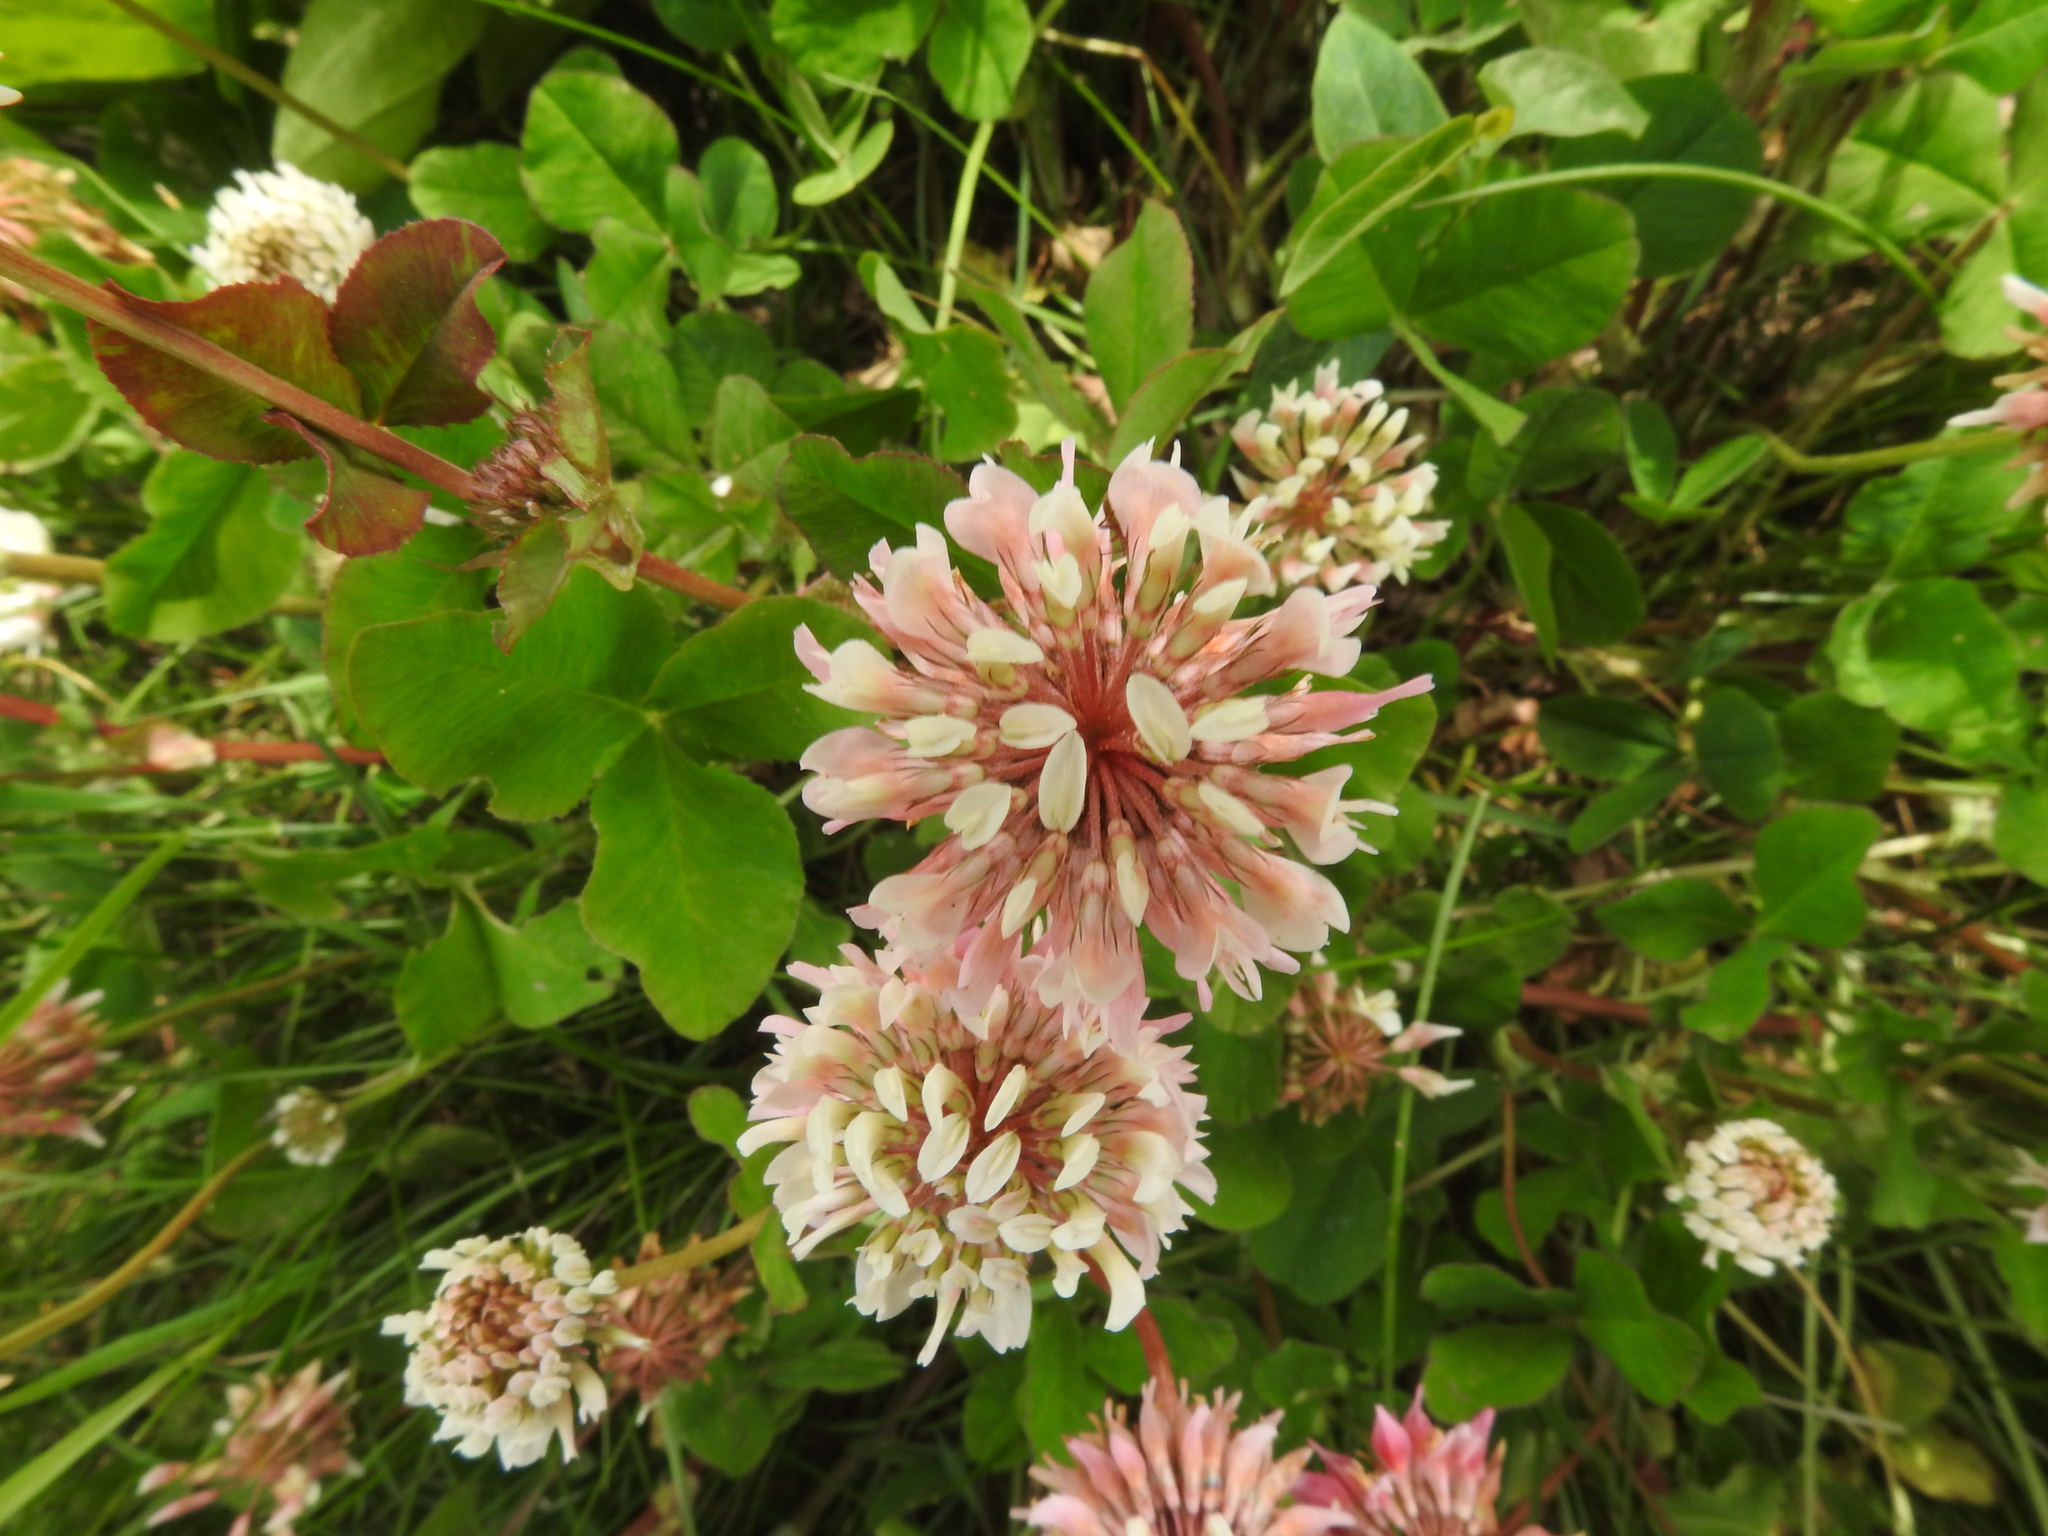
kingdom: Plantae
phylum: Tracheophyta
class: Magnoliopsida
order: Fabales
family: Fabaceae
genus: Trifolium
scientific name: Trifolium hybridum
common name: Alsike clover
